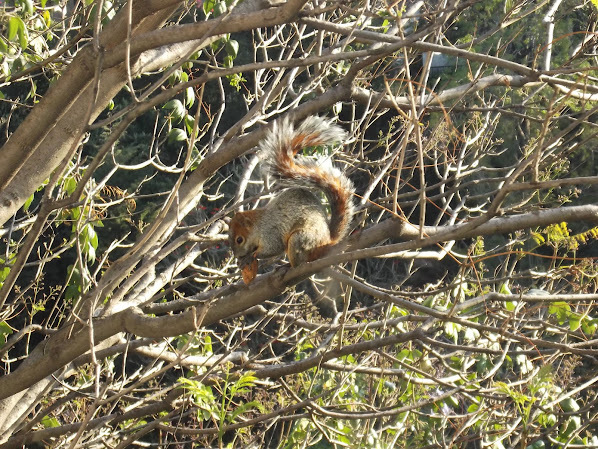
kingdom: Animalia
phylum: Chordata
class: Mammalia
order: Rodentia
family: Sciuridae
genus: Sciurus
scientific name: Sciurus aureogaster
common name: Red-bellied squirrel
